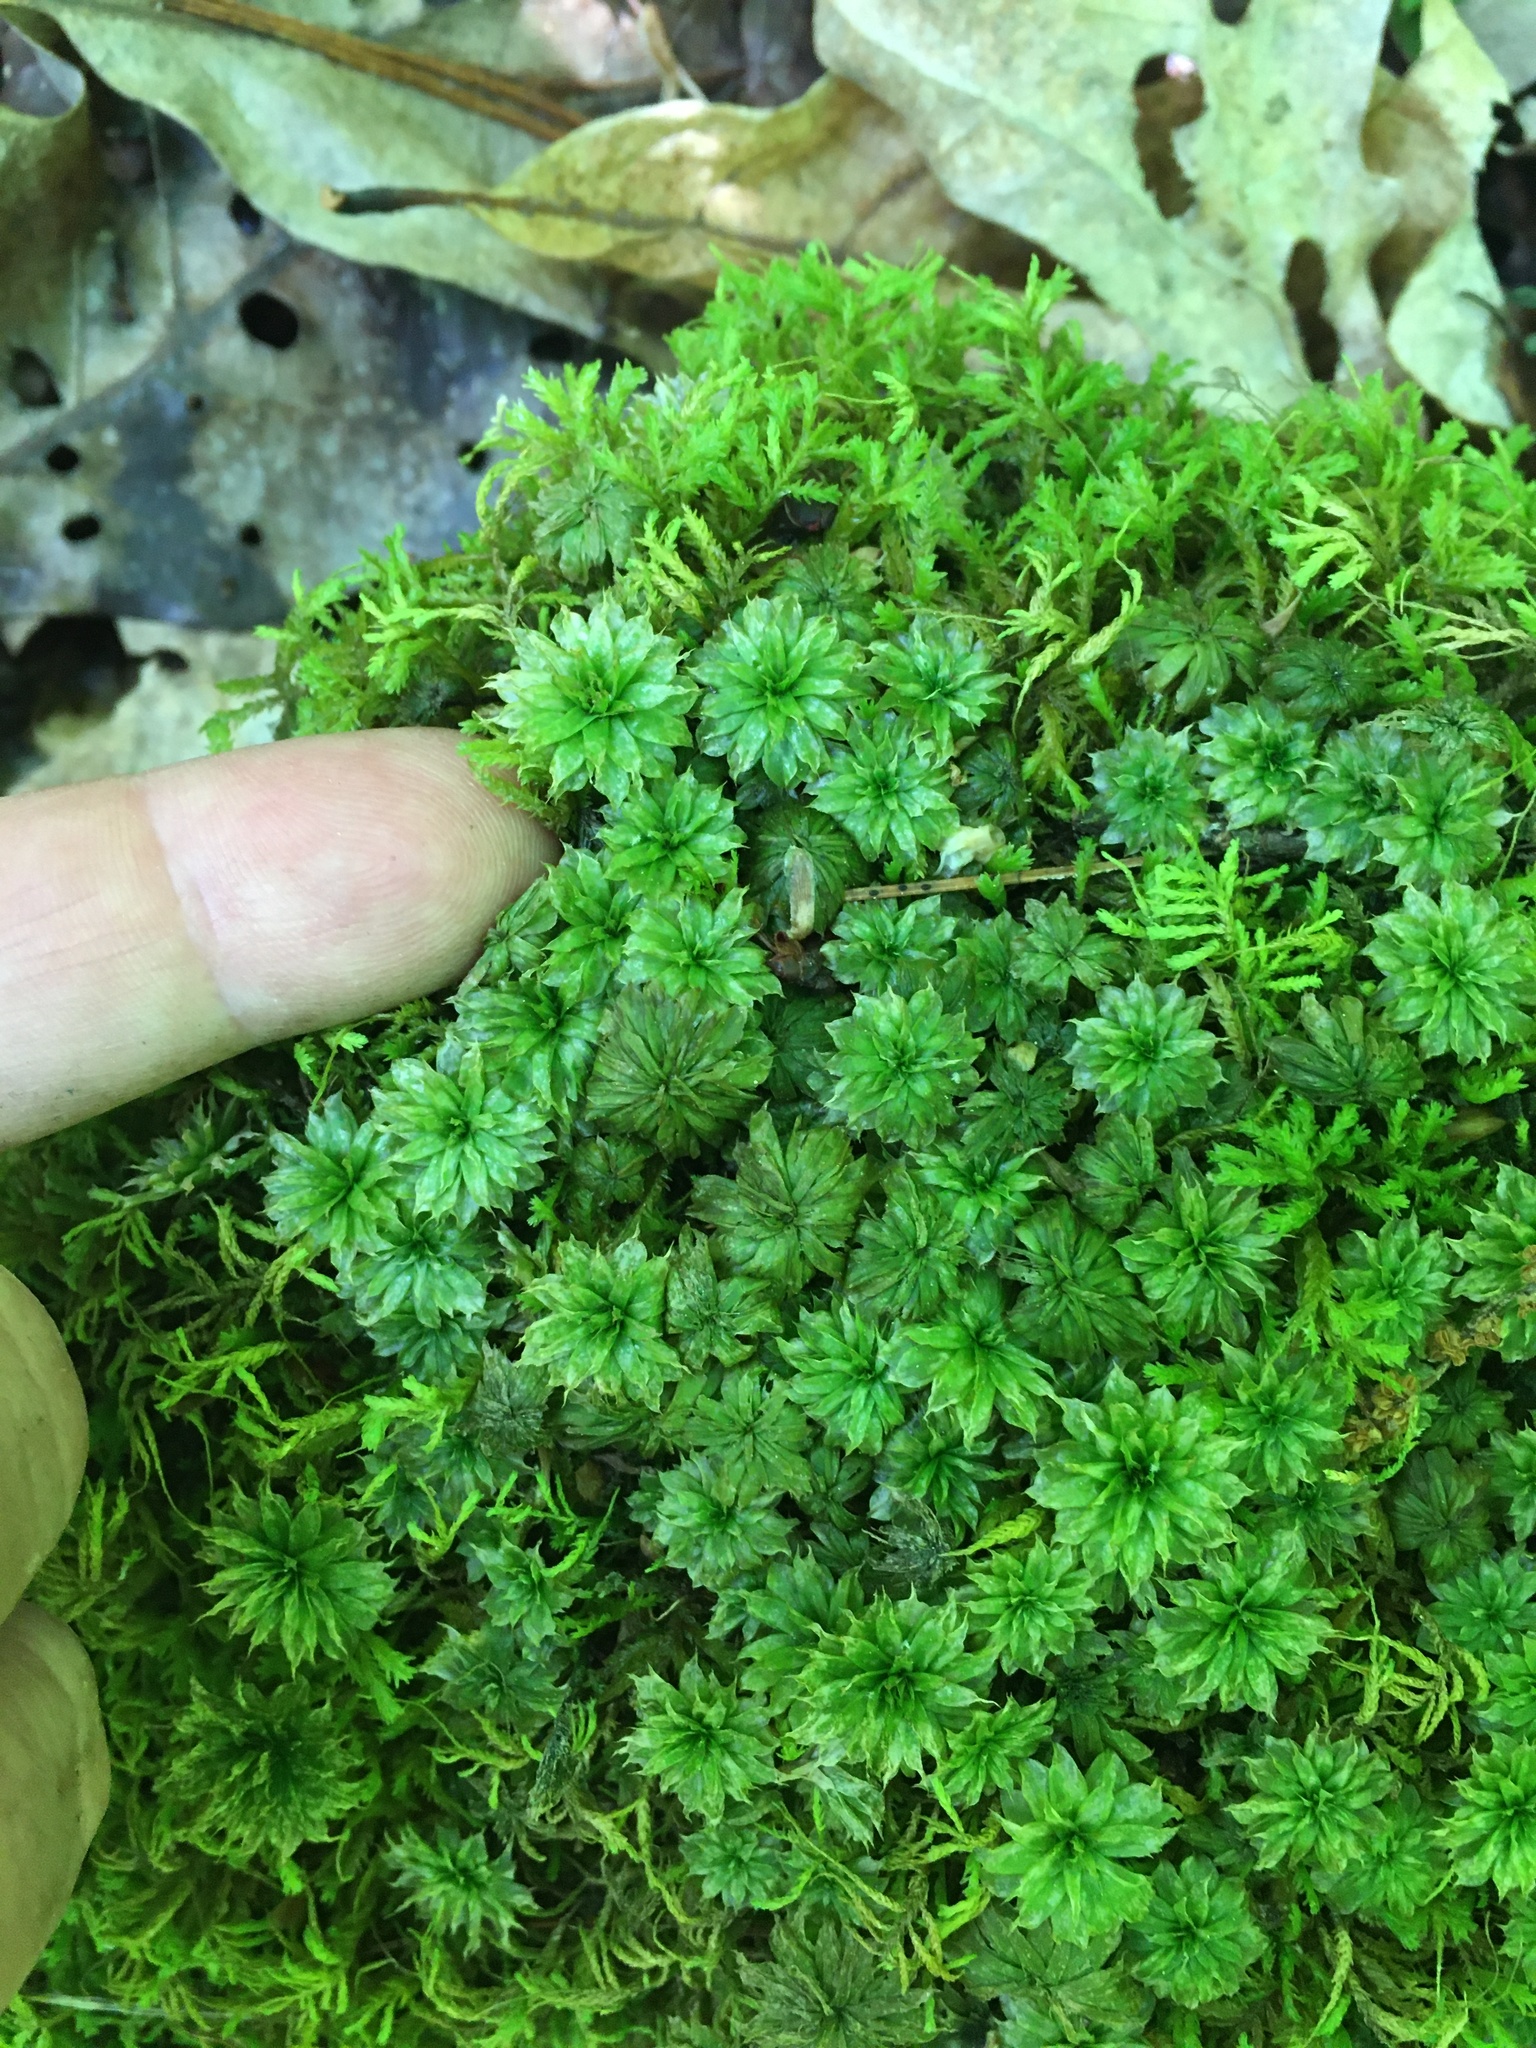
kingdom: Plantae
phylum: Bryophyta
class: Bryopsida
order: Bryales
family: Bryaceae
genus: Rhodobryum
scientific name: Rhodobryum ontariense
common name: Ontario rhodobryum moss
